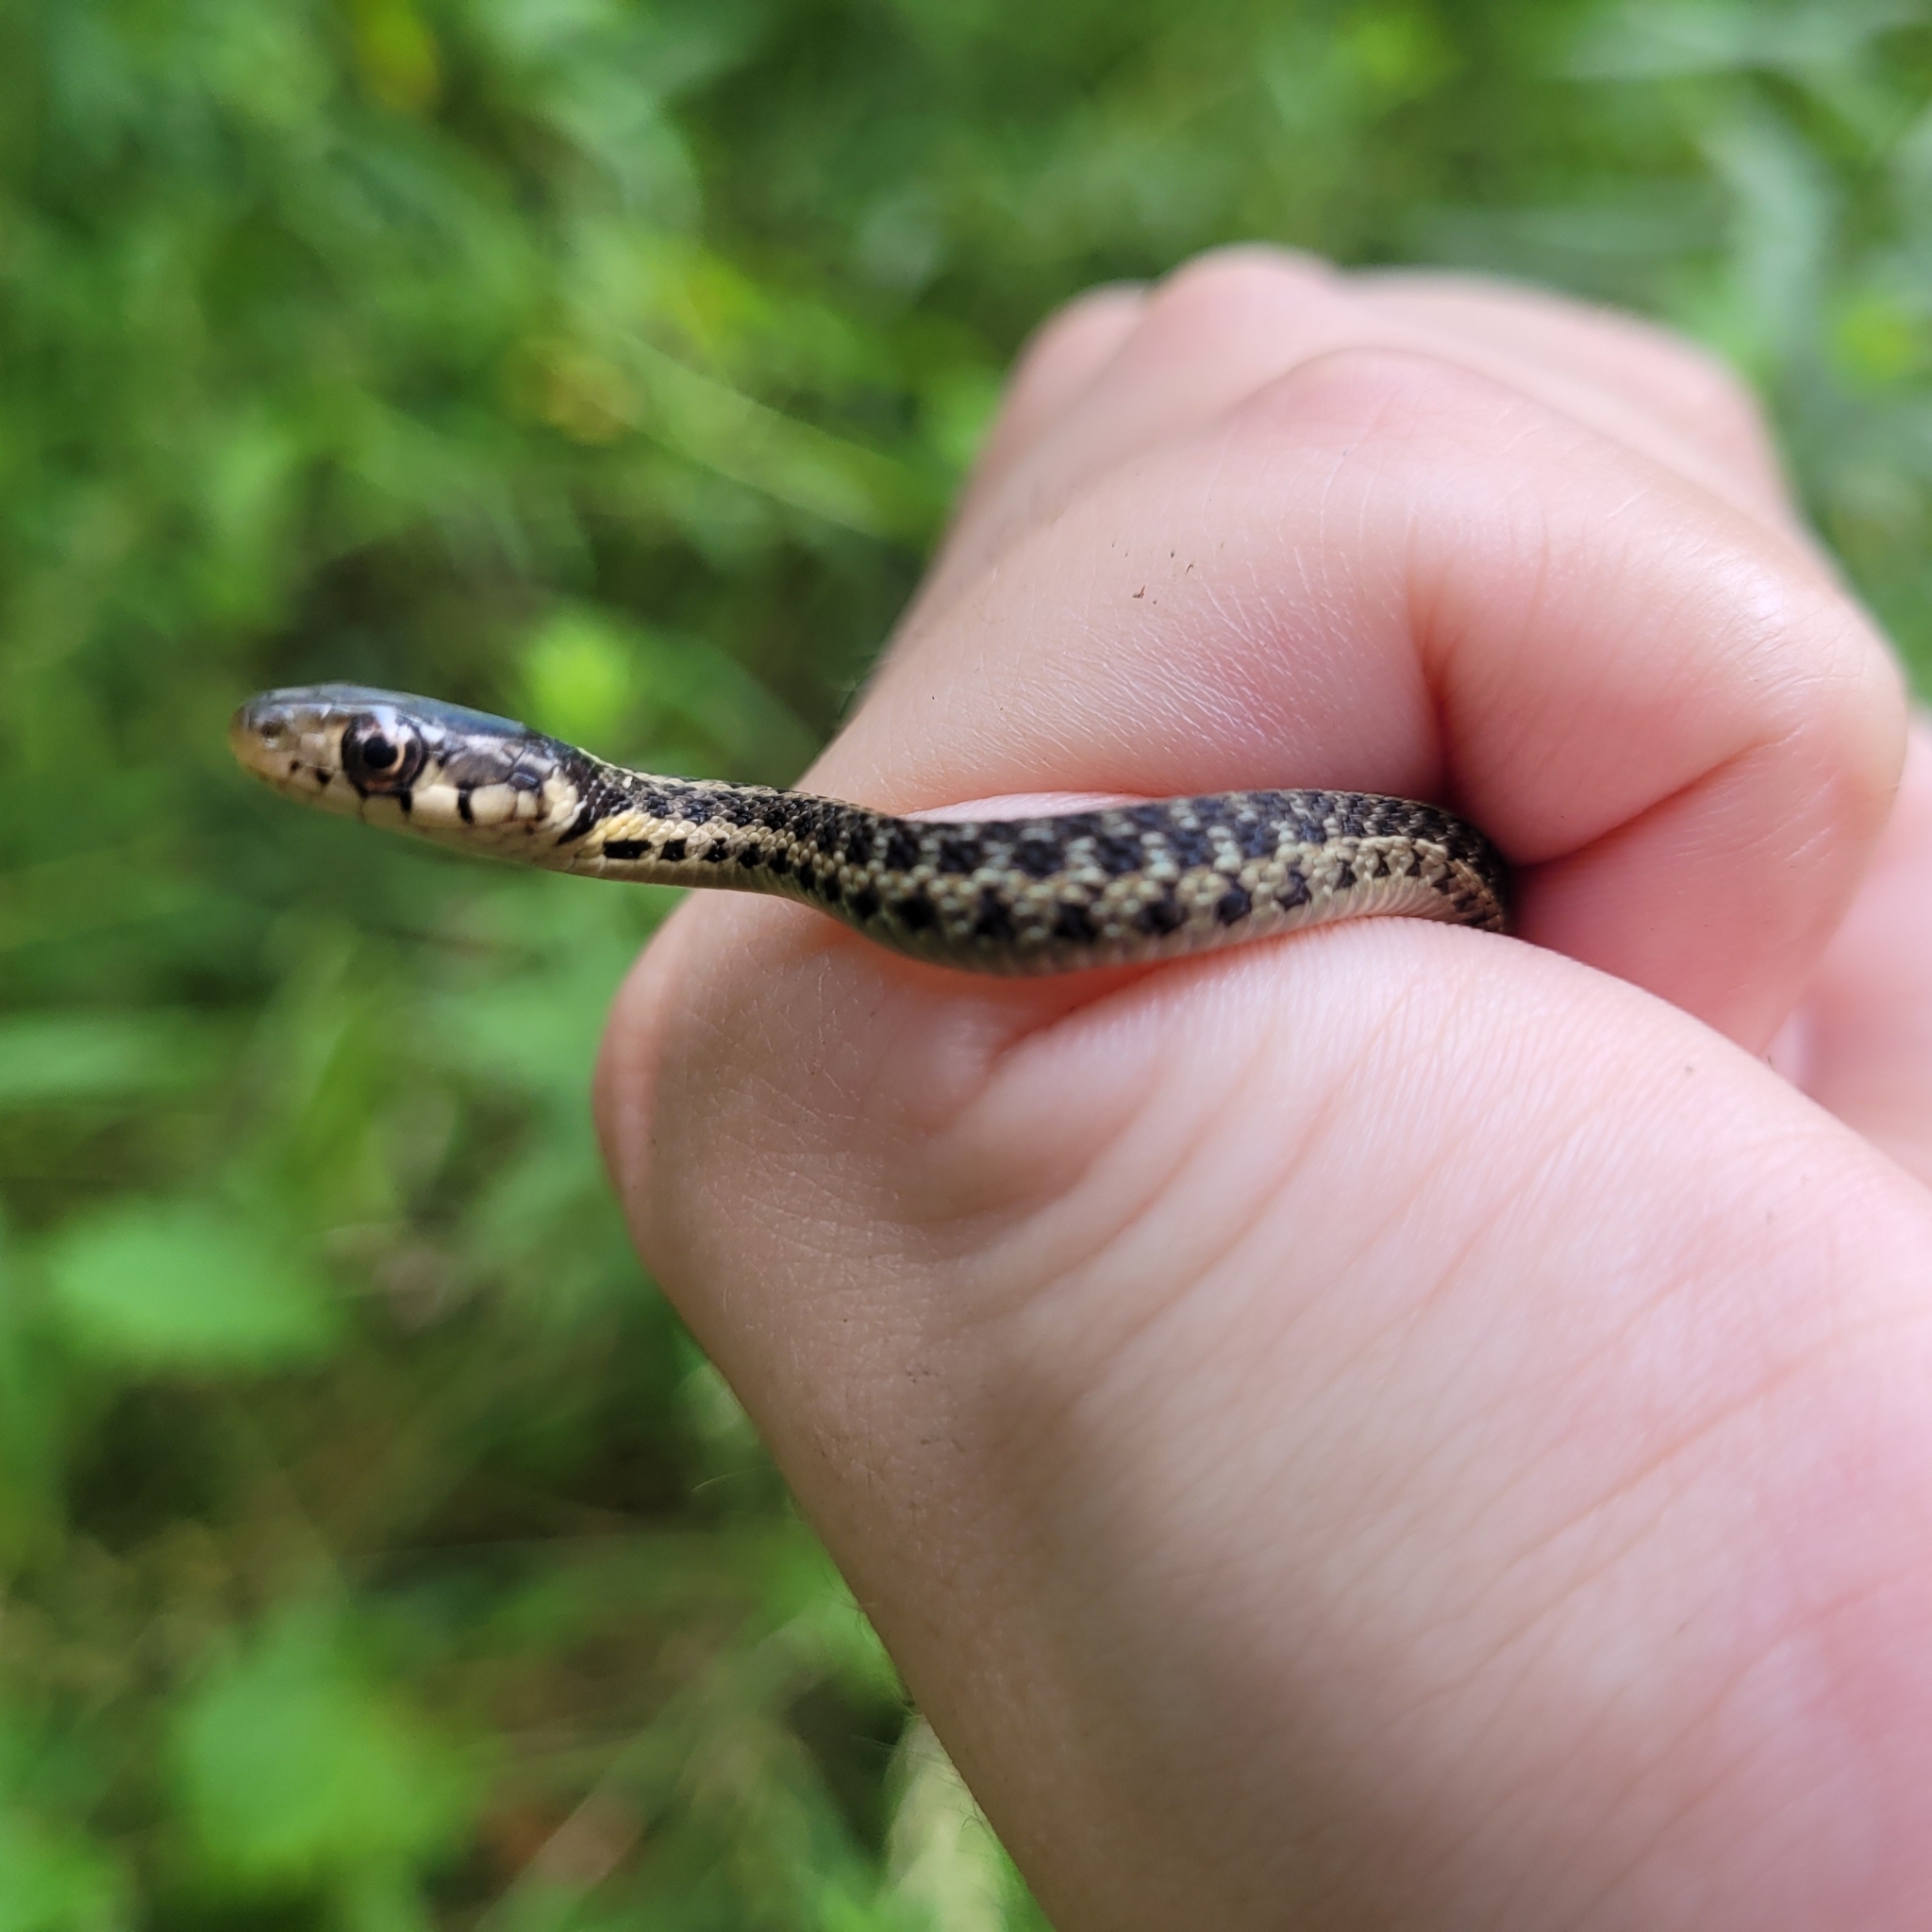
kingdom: Animalia
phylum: Chordata
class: Squamata
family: Colubridae
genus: Thamnophis
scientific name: Thamnophis sirtalis
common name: Common garter snake
